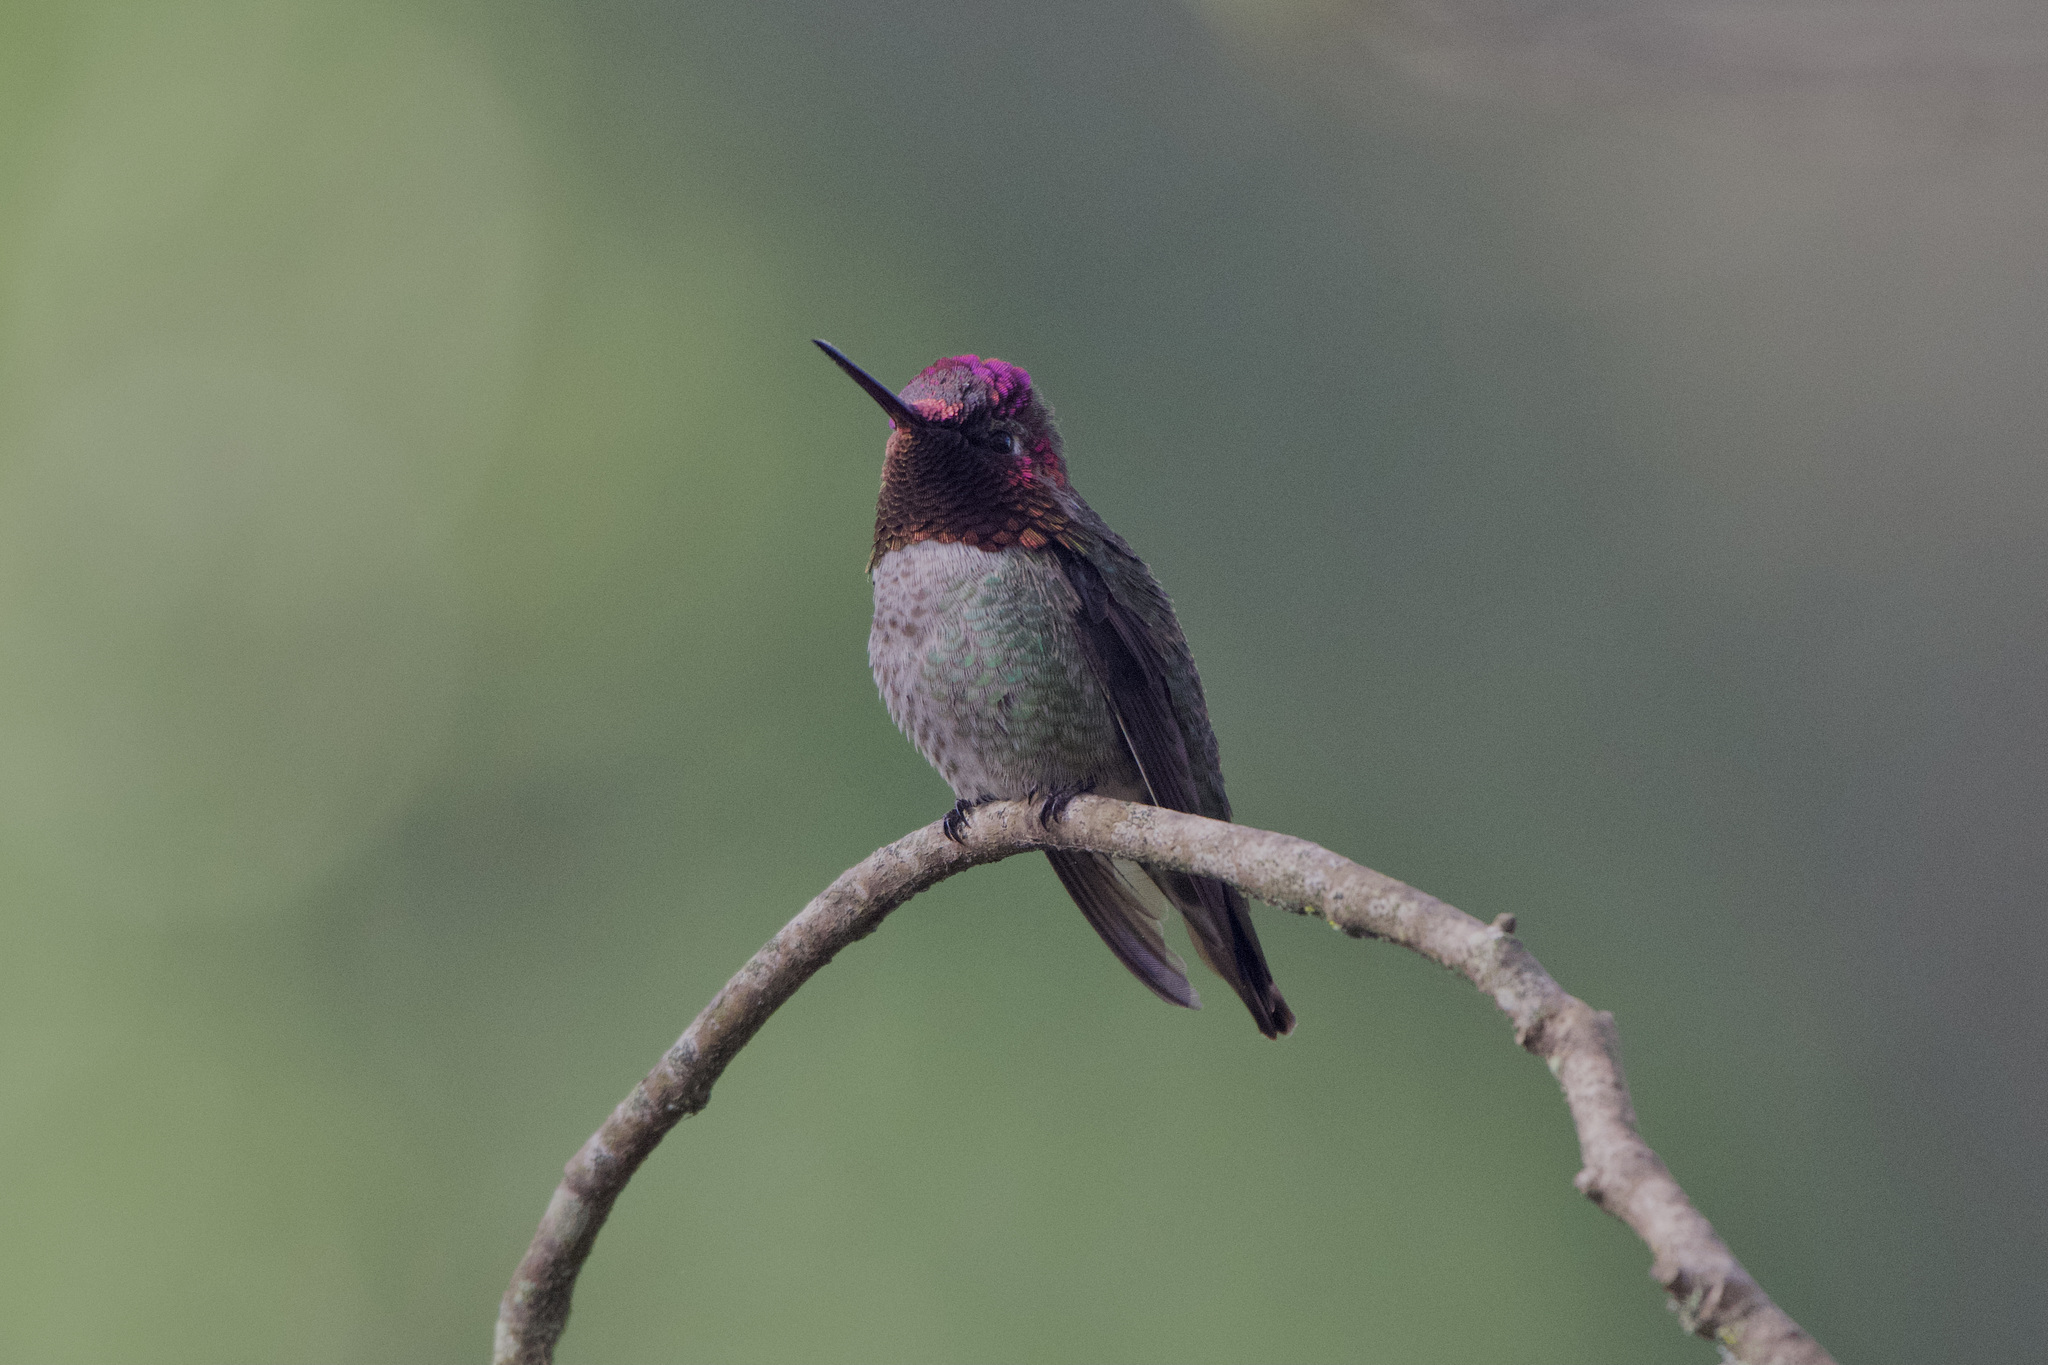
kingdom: Animalia
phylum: Chordata
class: Aves
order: Apodiformes
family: Trochilidae
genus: Calypte
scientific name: Calypte anna
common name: Anna's hummingbird
